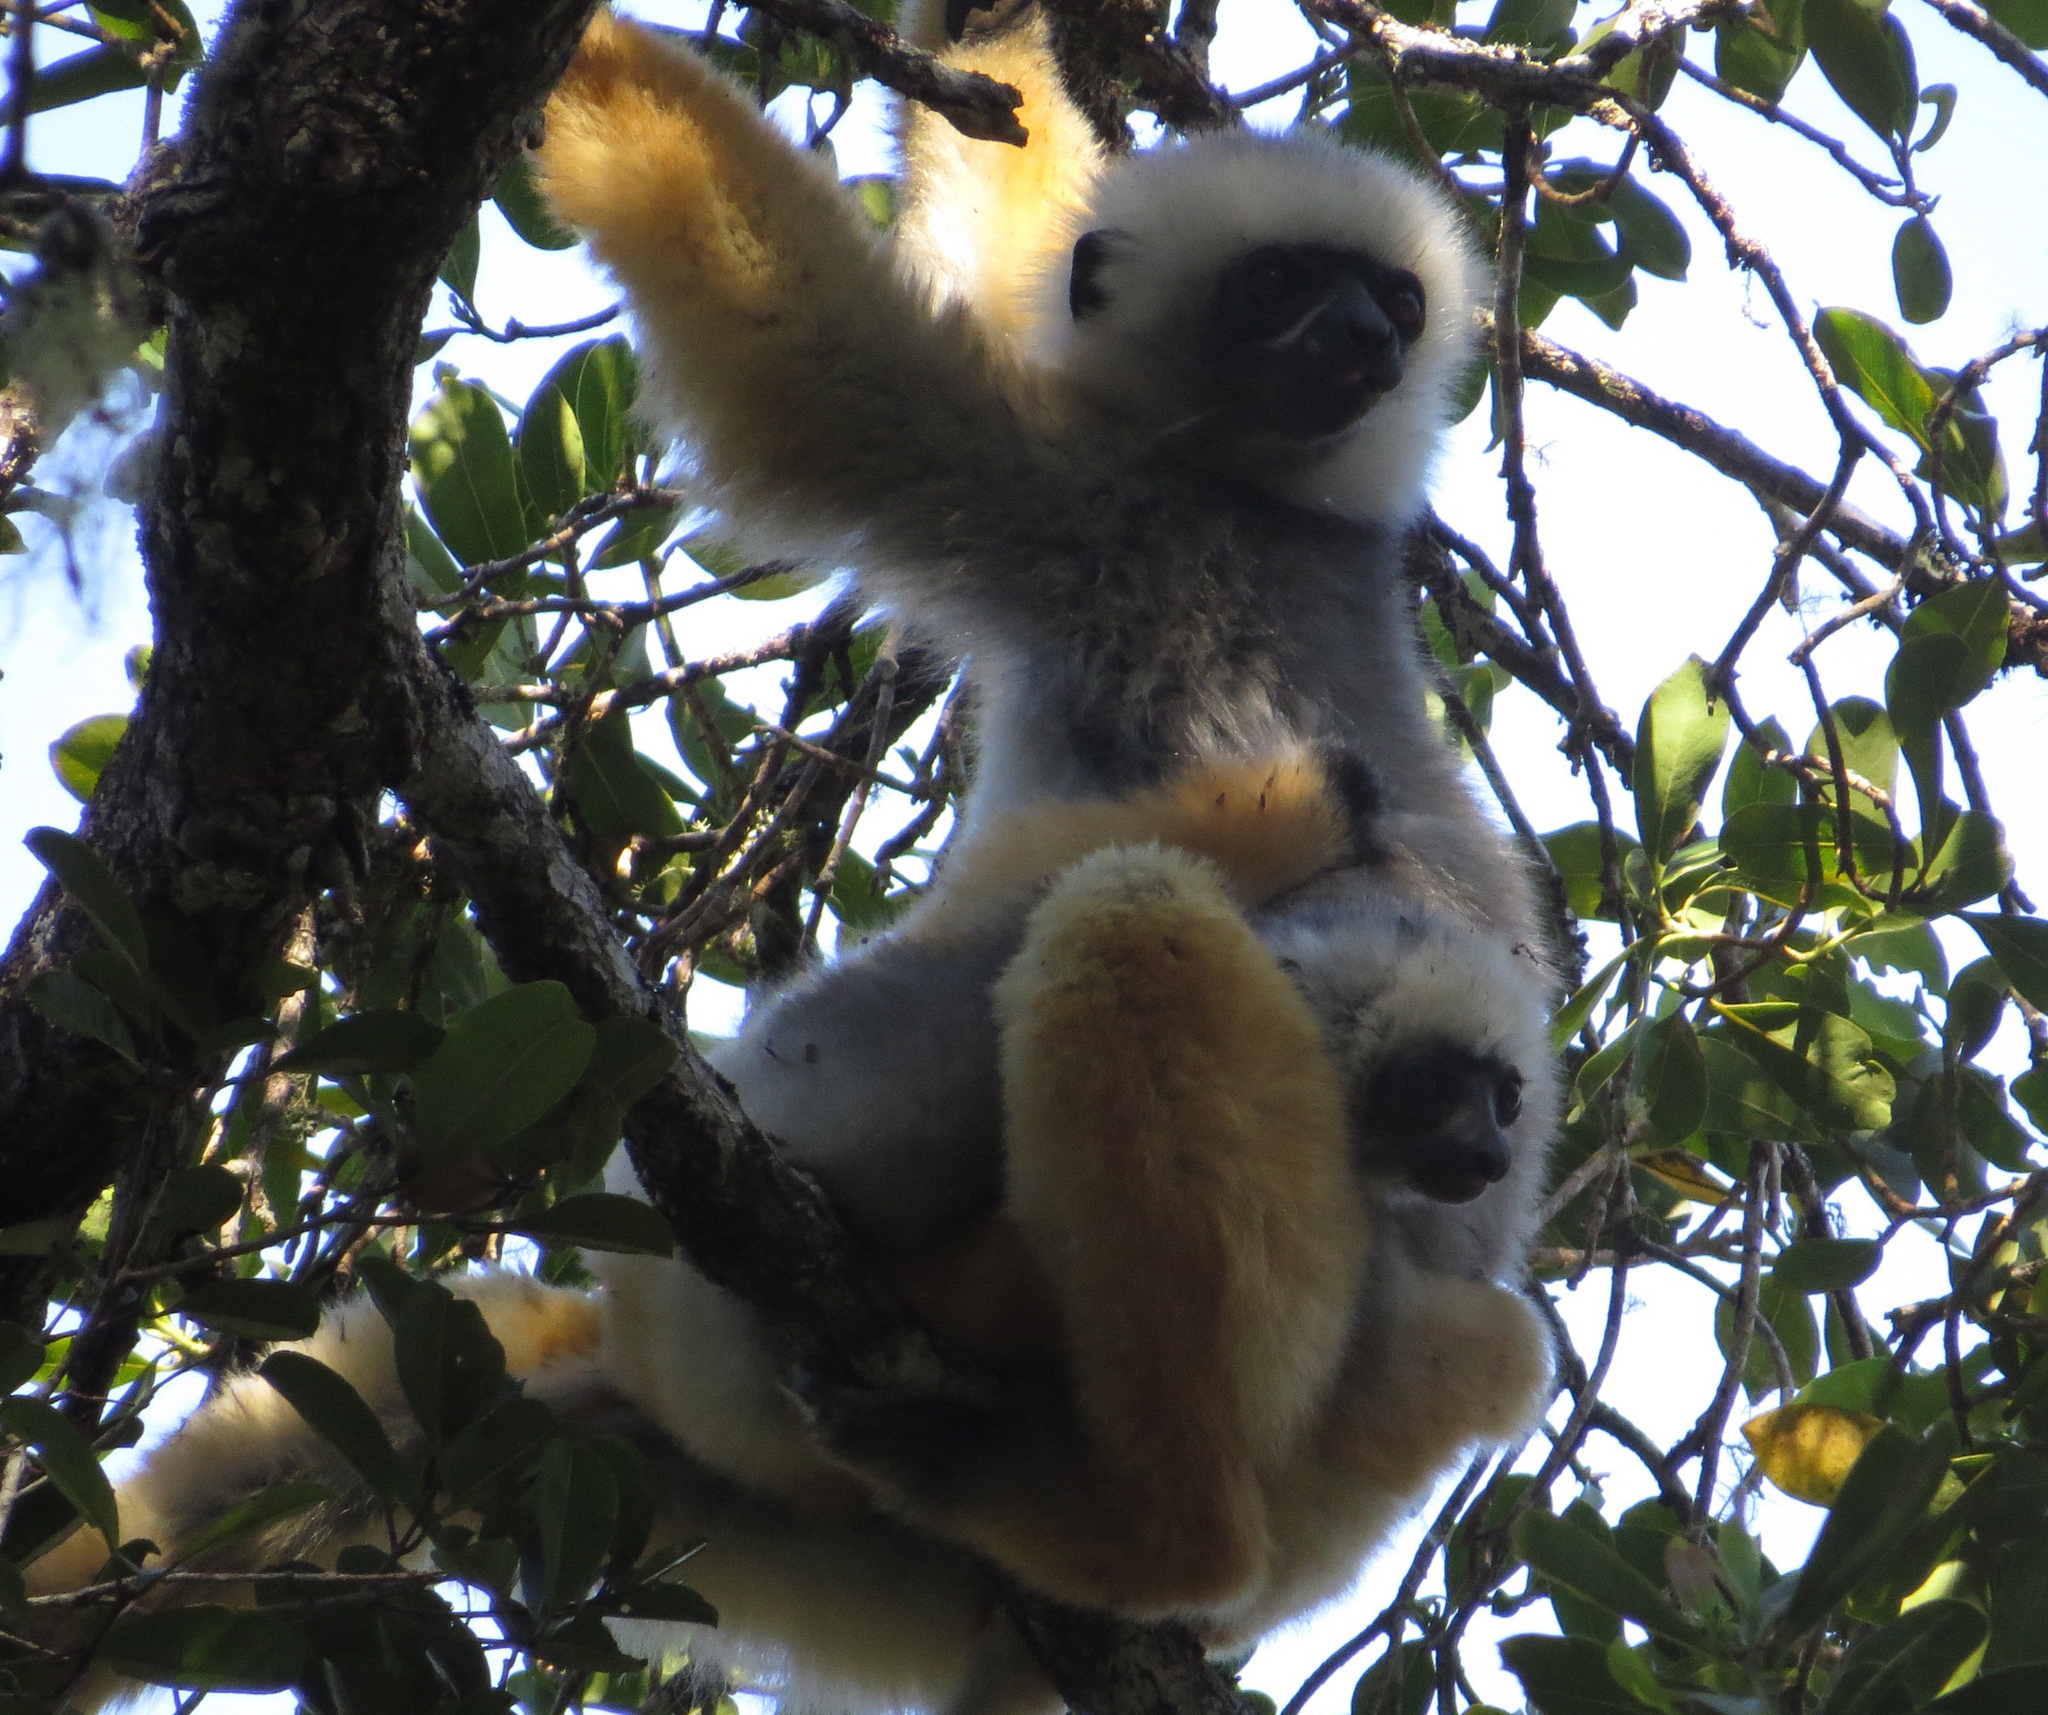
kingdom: Animalia
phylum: Chordata
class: Mammalia
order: Primates
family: Indriidae
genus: Propithecus
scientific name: Propithecus diadema
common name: Diademed sifaka
